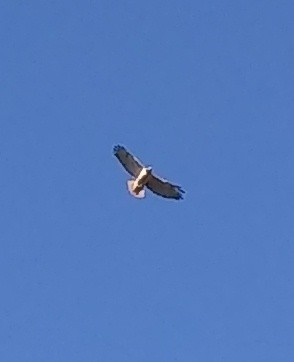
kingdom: Animalia
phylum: Chordata
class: Aves
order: Accipitriformes
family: Accipitridae
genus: Buteo
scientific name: Buteo jamaicensis
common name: Red-tailed hawk
